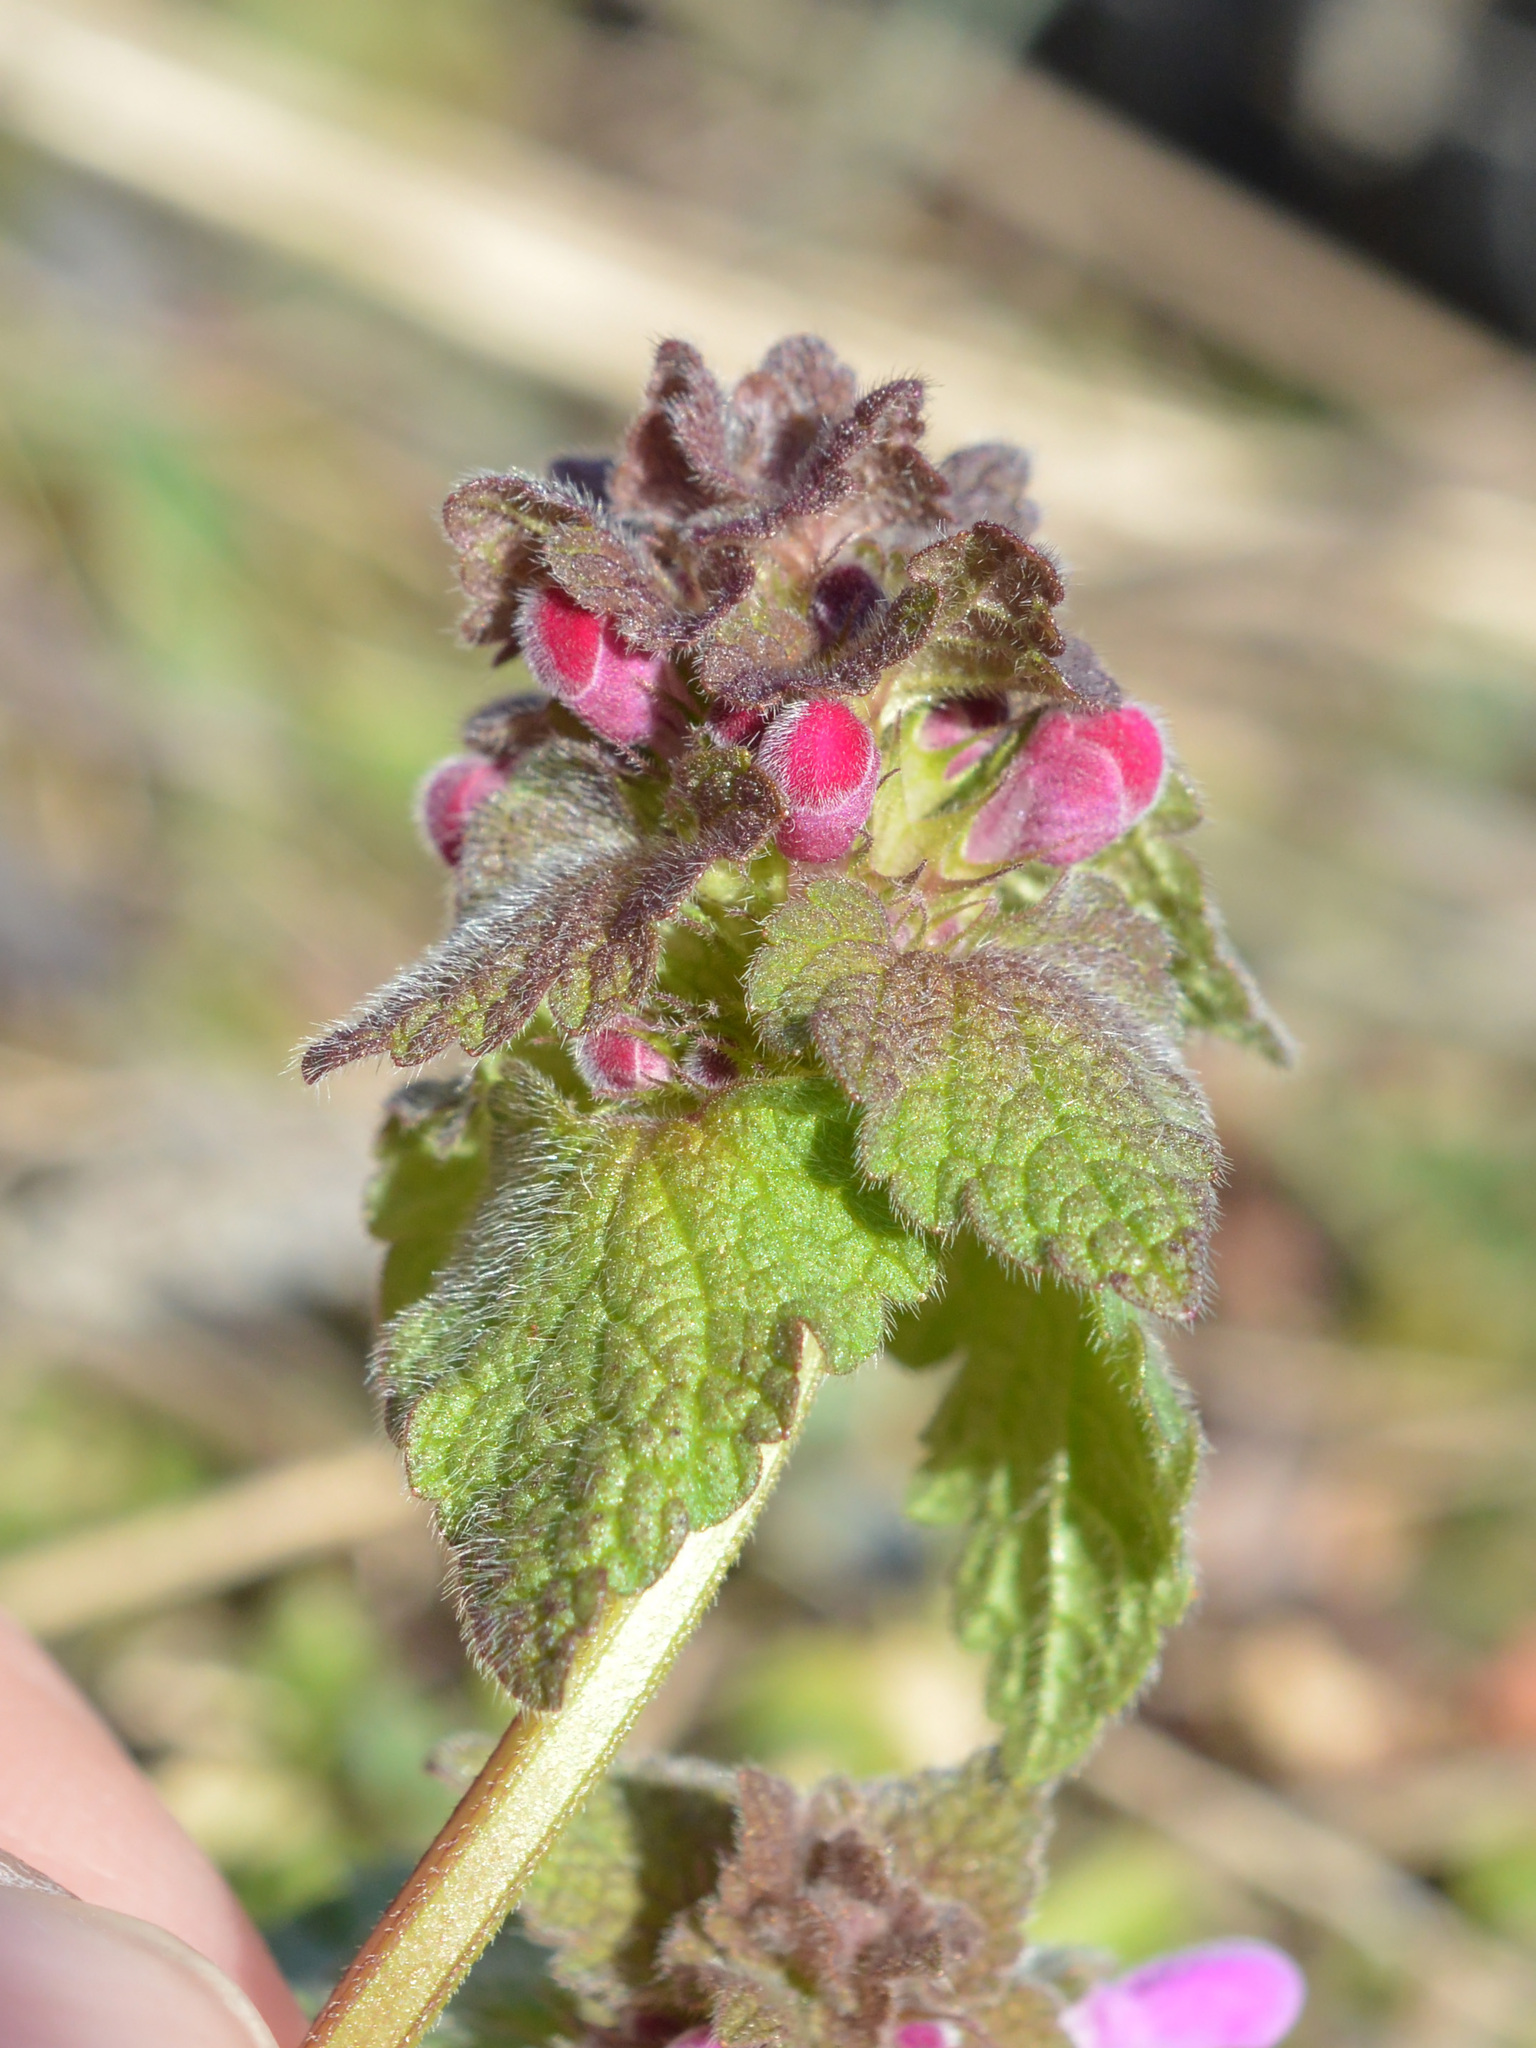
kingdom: Plantae
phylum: Tracheophyta
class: Magnoliopsida
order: Lamiales
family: Lamiaceae
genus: Lamium
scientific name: Lamium purpureum
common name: Red dead-nettle
